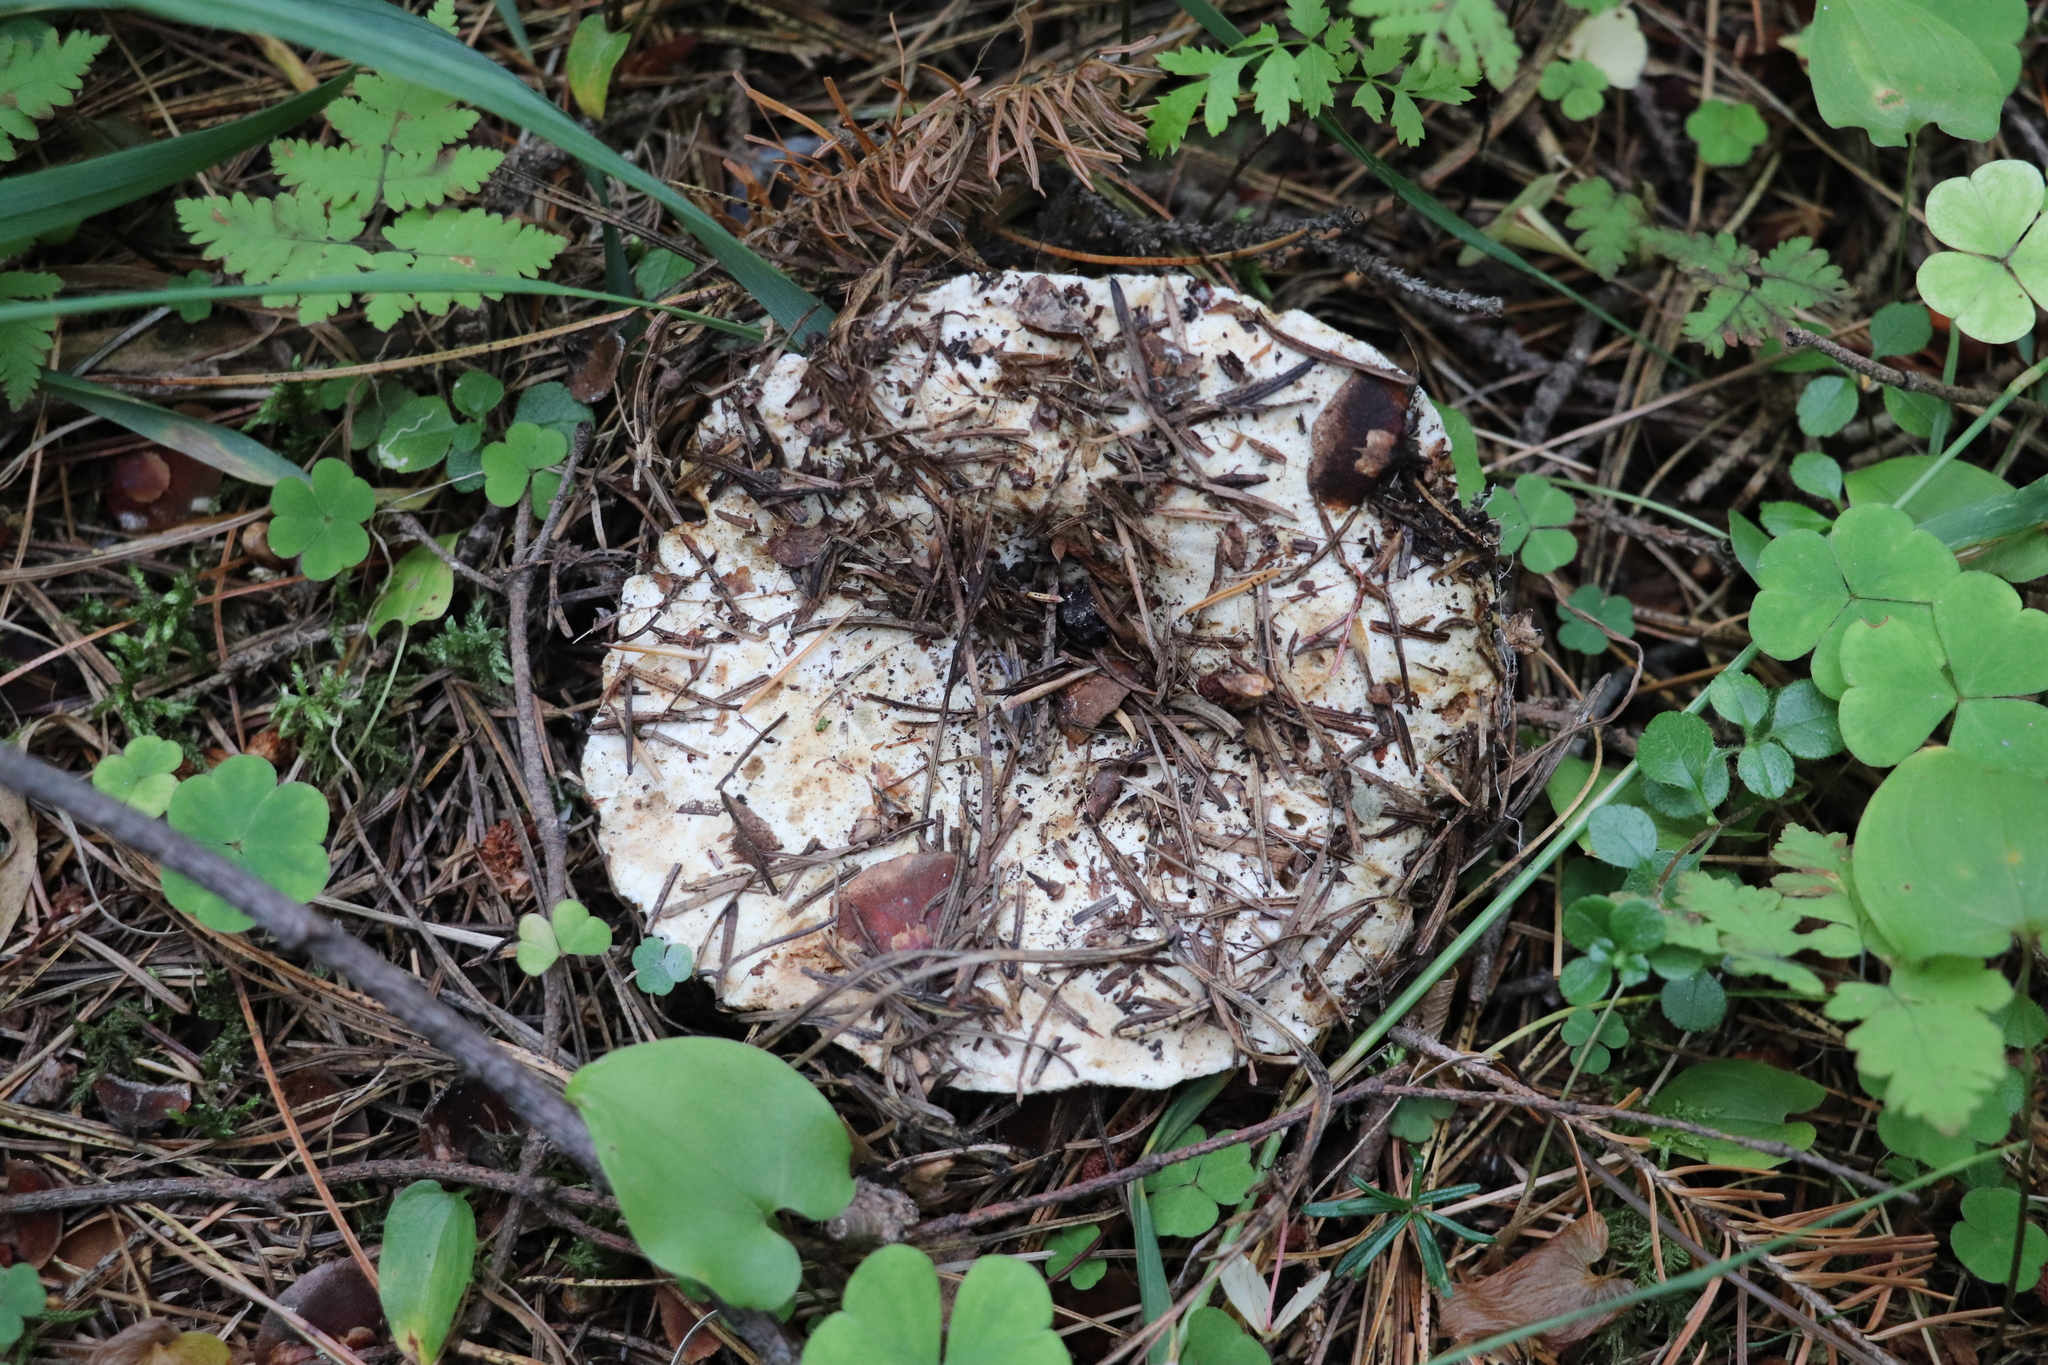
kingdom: Fungi
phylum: Basidiomycota
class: Agaricomycetes
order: Russulales
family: Russulaceae
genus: Russula
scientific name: Russula delica
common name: Milk white brittlegill
